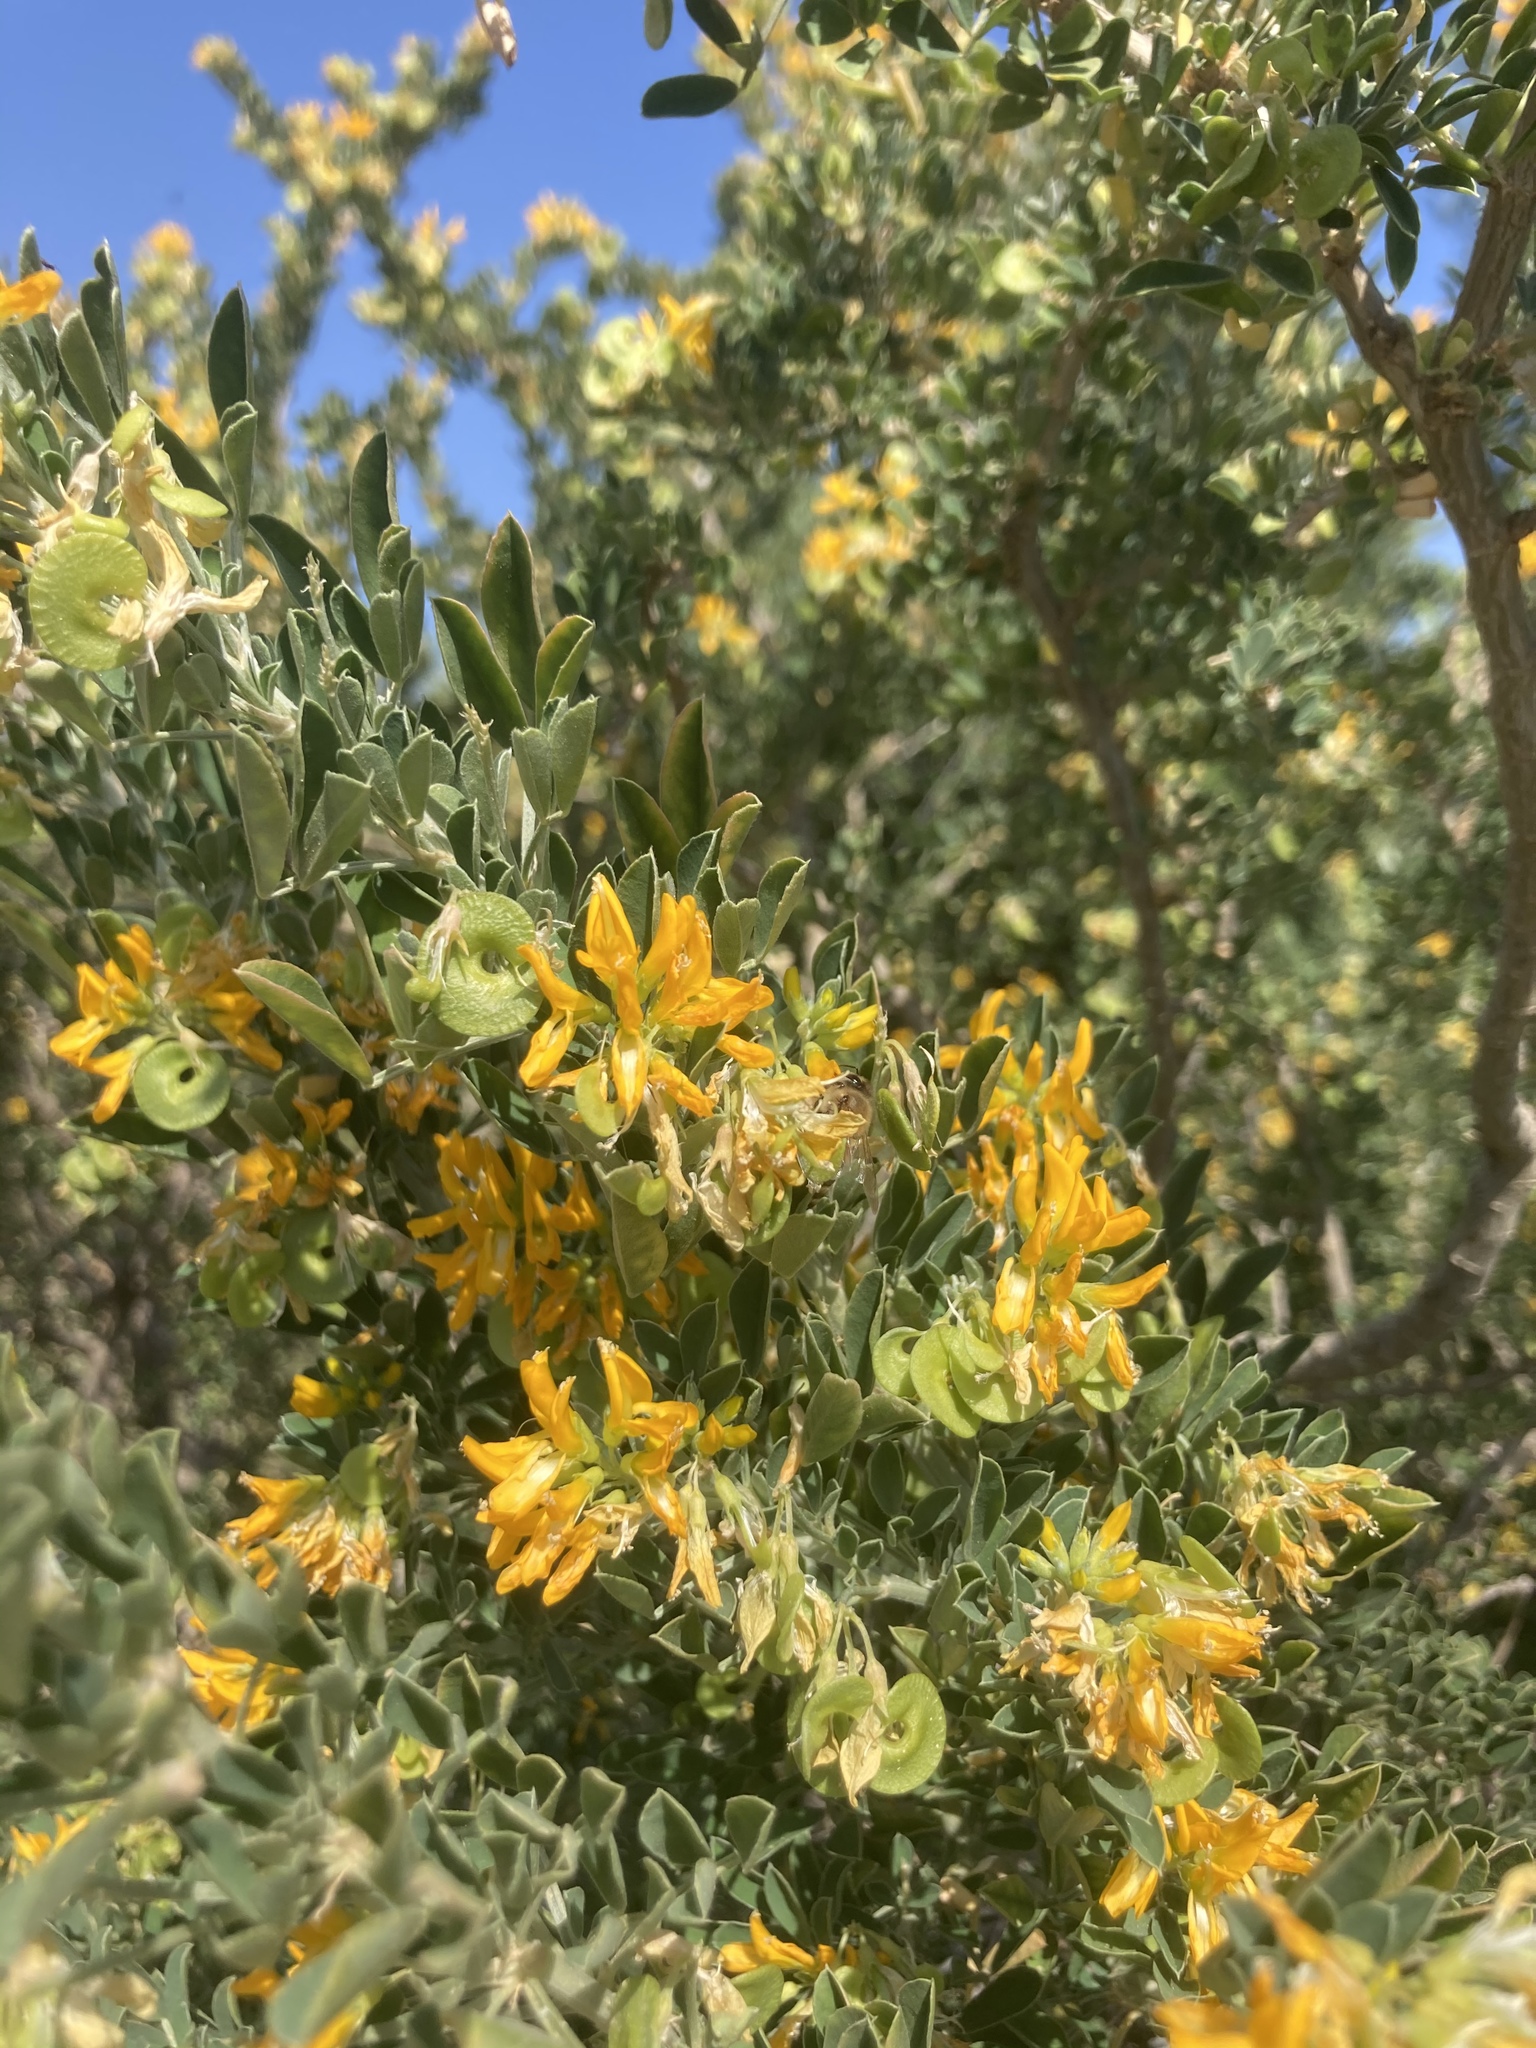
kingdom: Plantae
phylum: Tracheophyta
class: Magnoliopsida
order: Fabales
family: Fabaceae
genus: Medicago
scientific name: Medicago arborea
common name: Moon trefoil
